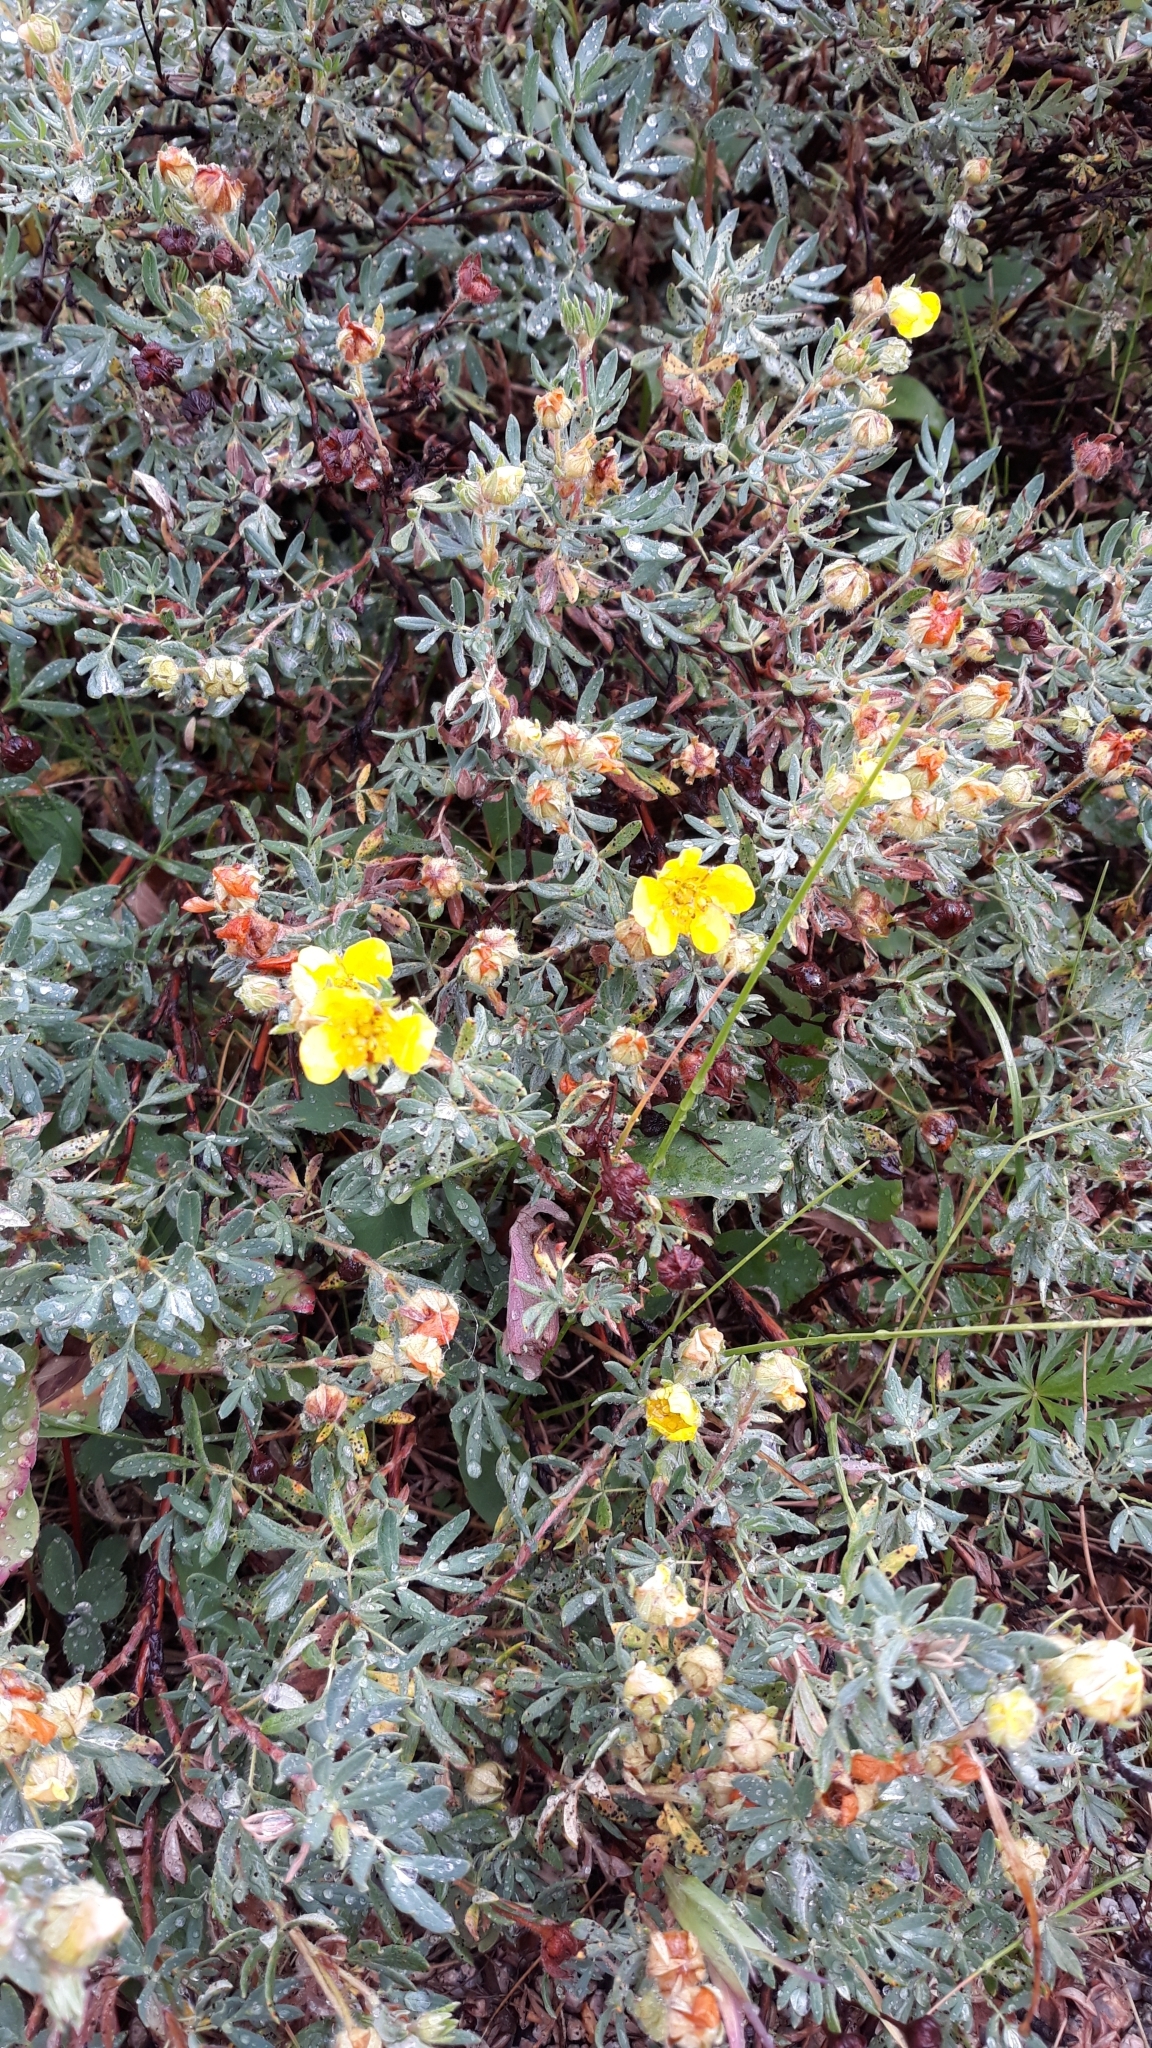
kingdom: Plantae
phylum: Tracheophyta
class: Magnoliopsida
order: Rosales
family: Rosaceae
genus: Dasiphora
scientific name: Dasiphora fruticosa
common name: Shrubby cinquefoil
